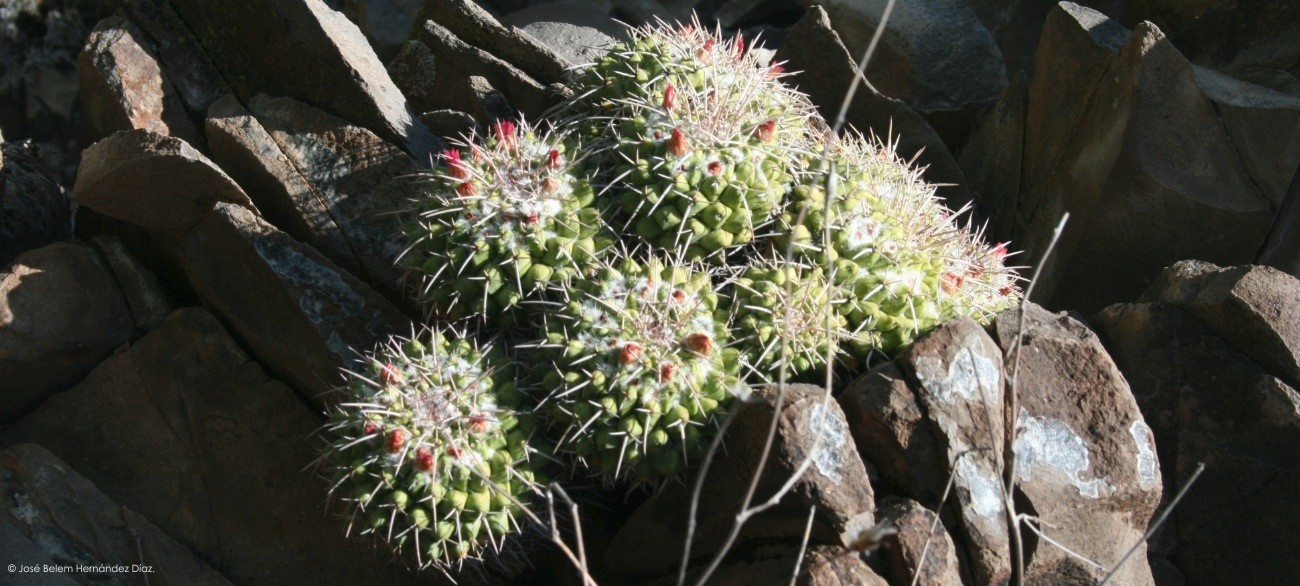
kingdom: Plantae
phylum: Tracheophyta
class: Magnoliopsida
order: Caryophyllales
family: Cactaceae
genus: Mammillaria
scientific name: Mammillaria compressa
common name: Mother-of-hundreds
